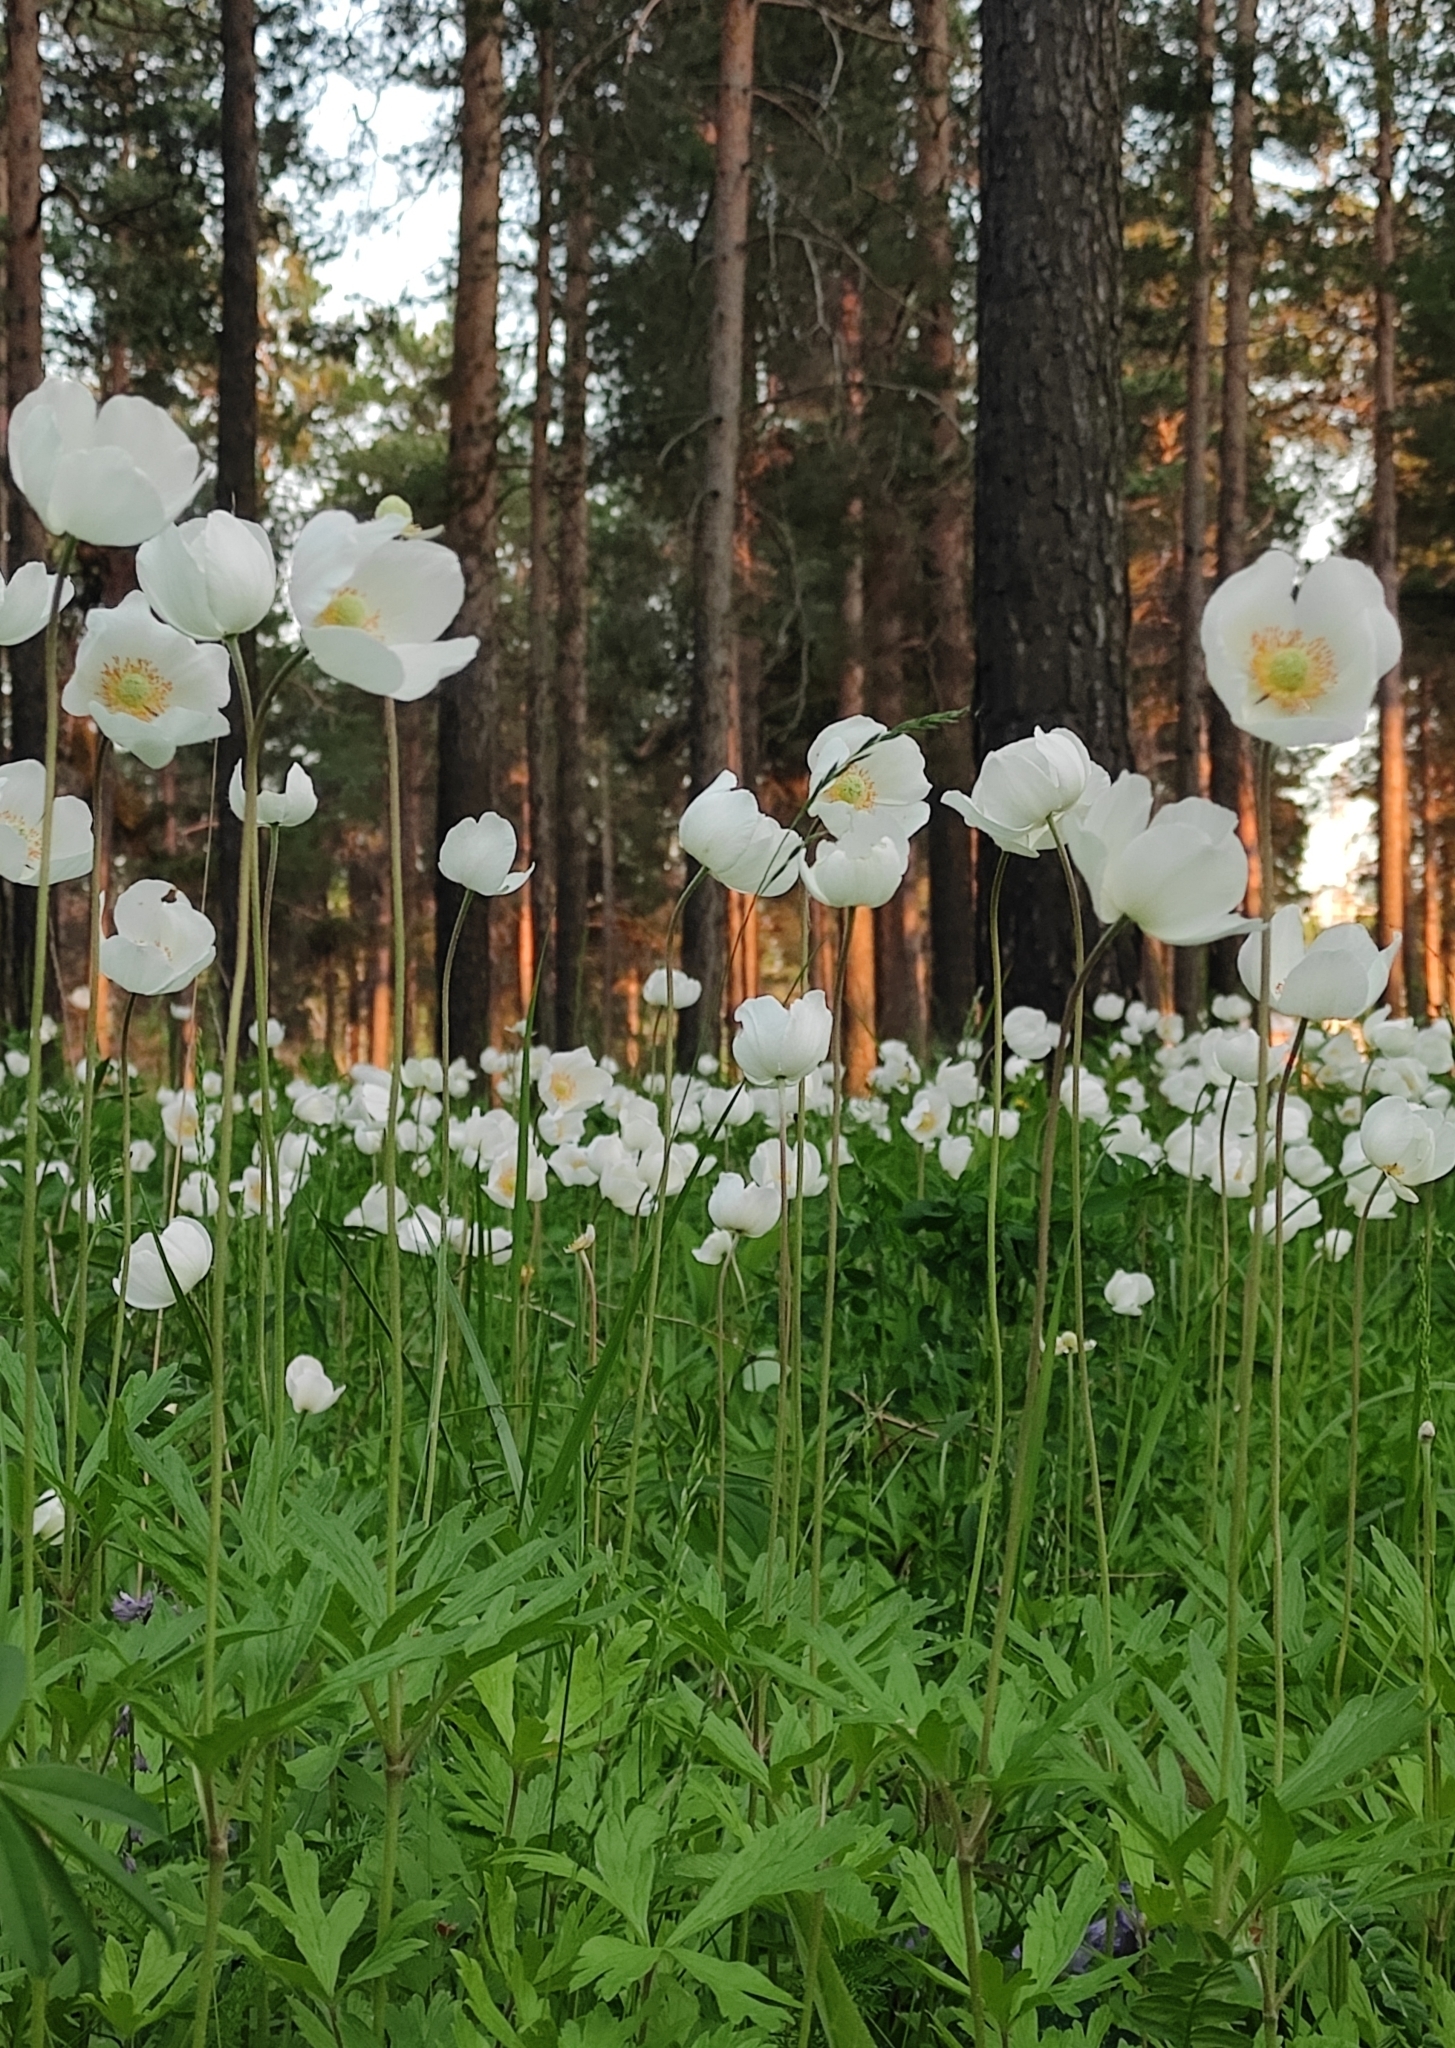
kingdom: Plantae
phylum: Tracheophyta
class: Magnoliopsida
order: Ranunculales
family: Ranunculaceae
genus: Anemone
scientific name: Anemone sylvestris
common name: Snowdrop anemone
